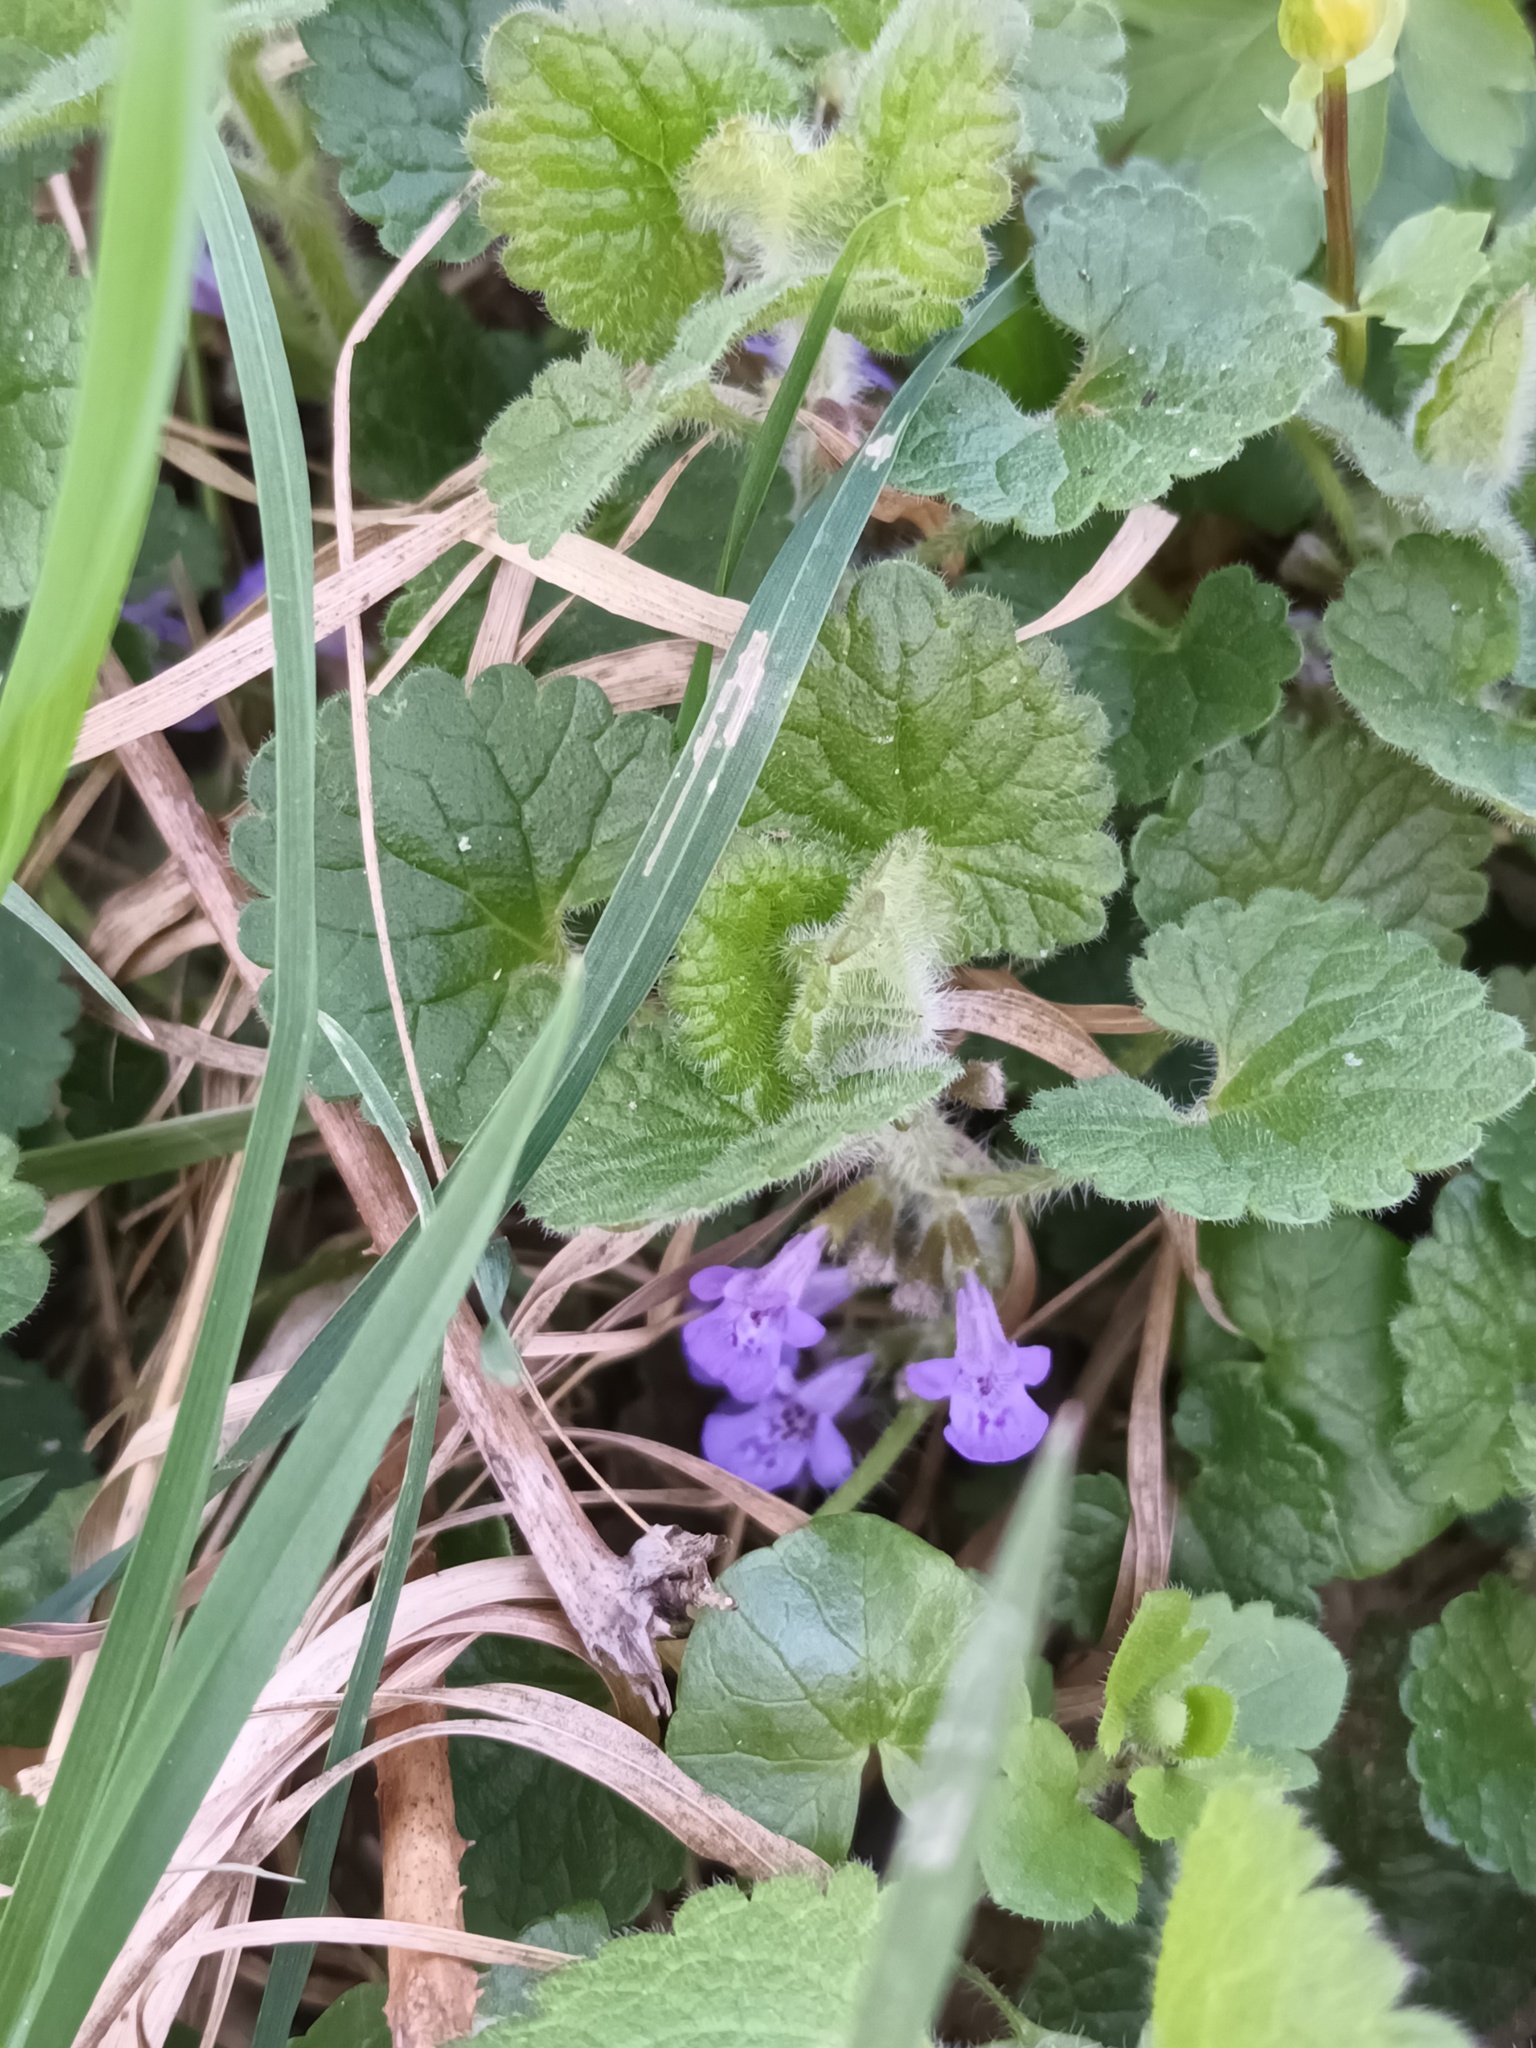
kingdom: Plantae
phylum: Tracheophyta
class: Magnoliopsida
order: Lamiales
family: Lamiaceae
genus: Glechoma
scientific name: Glechoma hederacea
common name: Ground ivy
